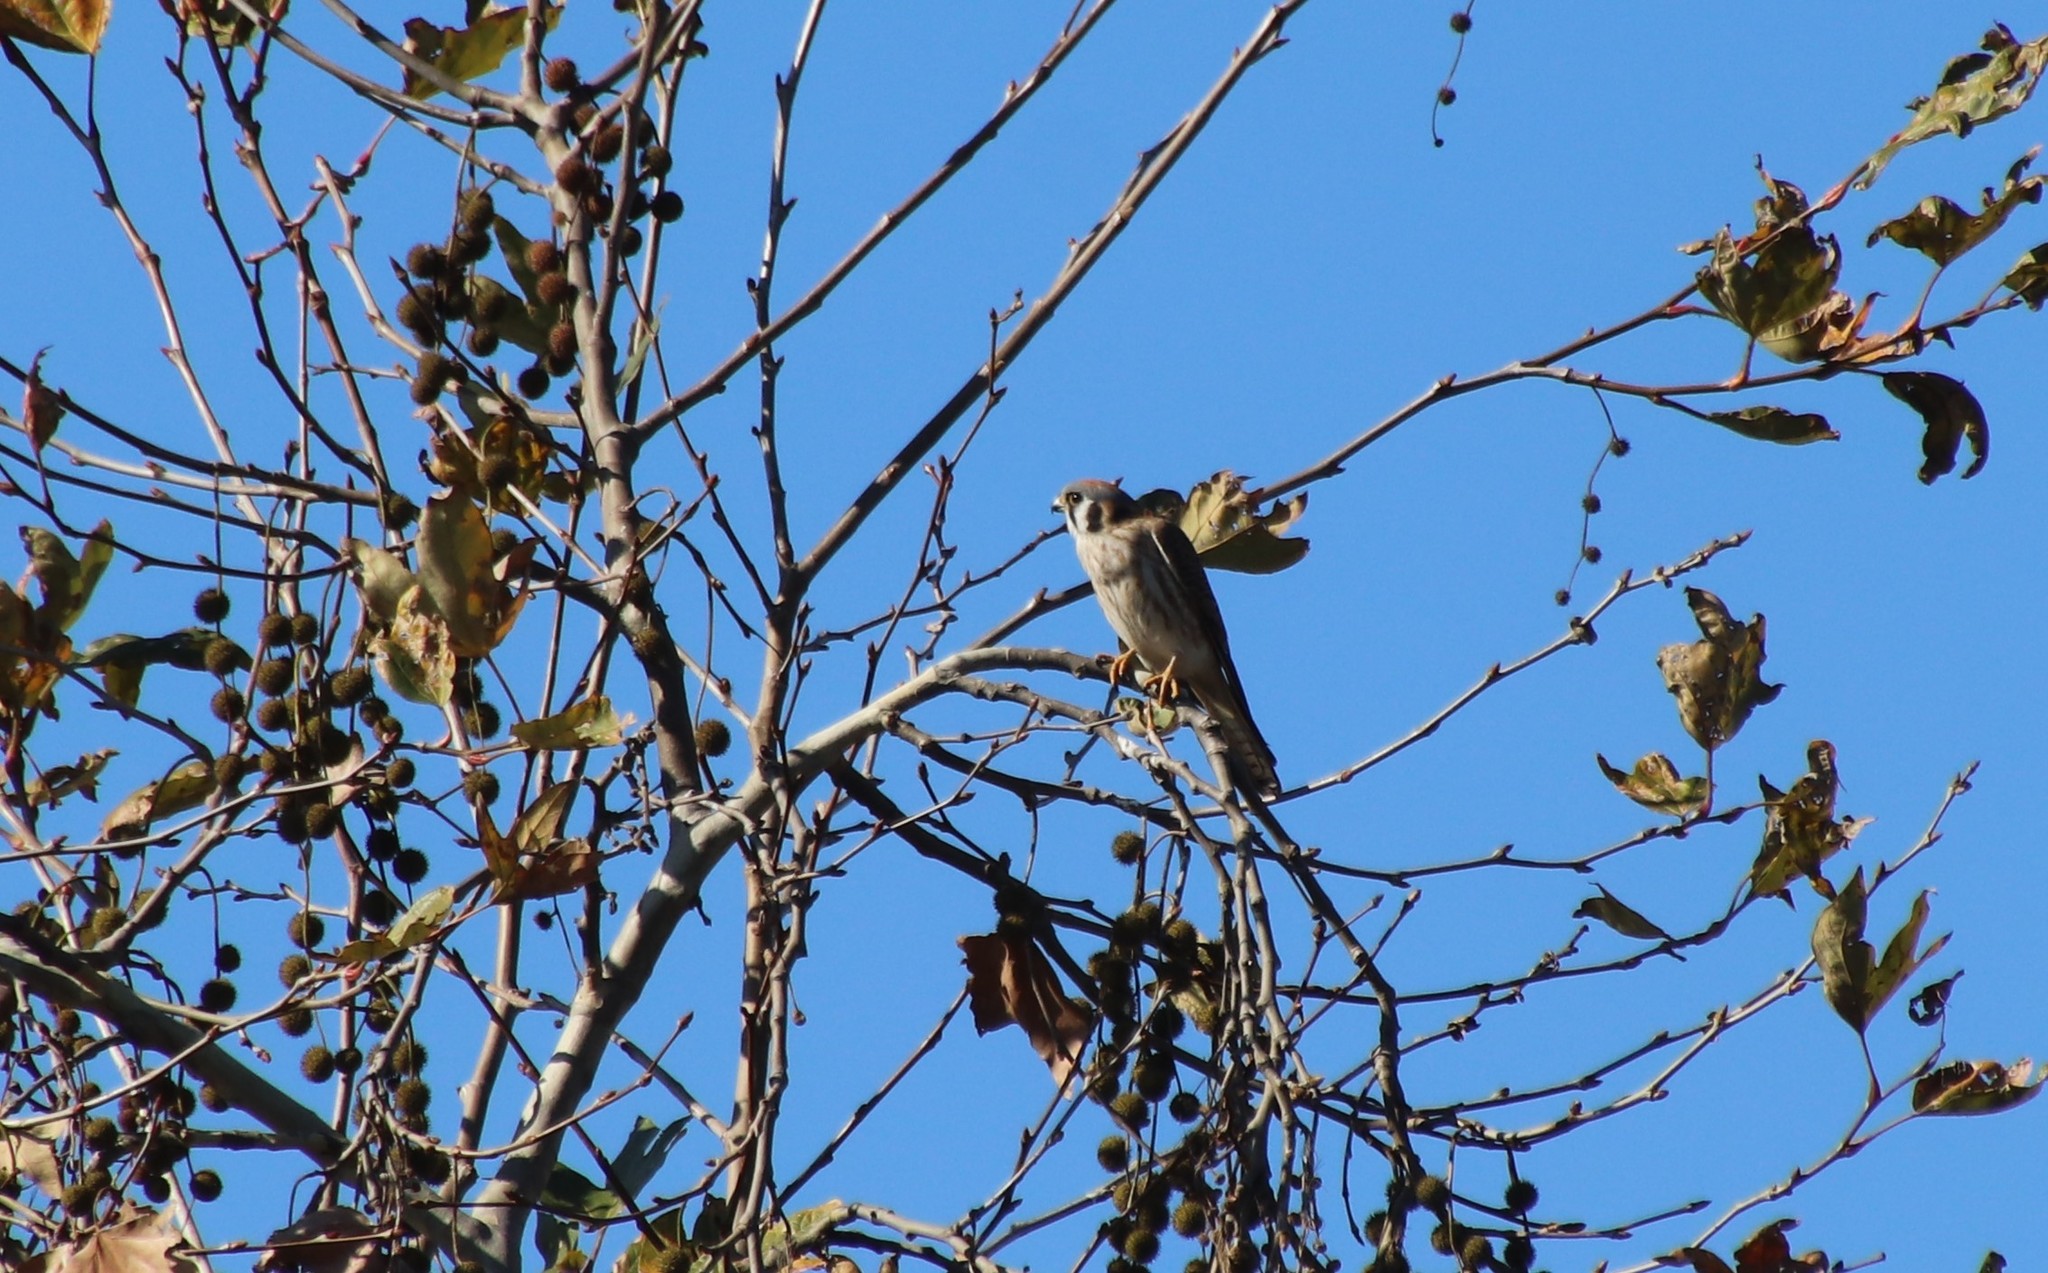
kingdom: Animalia
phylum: Chordata
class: Aves
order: Falconiformes
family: Falconidae
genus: Falco
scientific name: Falco sparverius
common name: American kestrel
